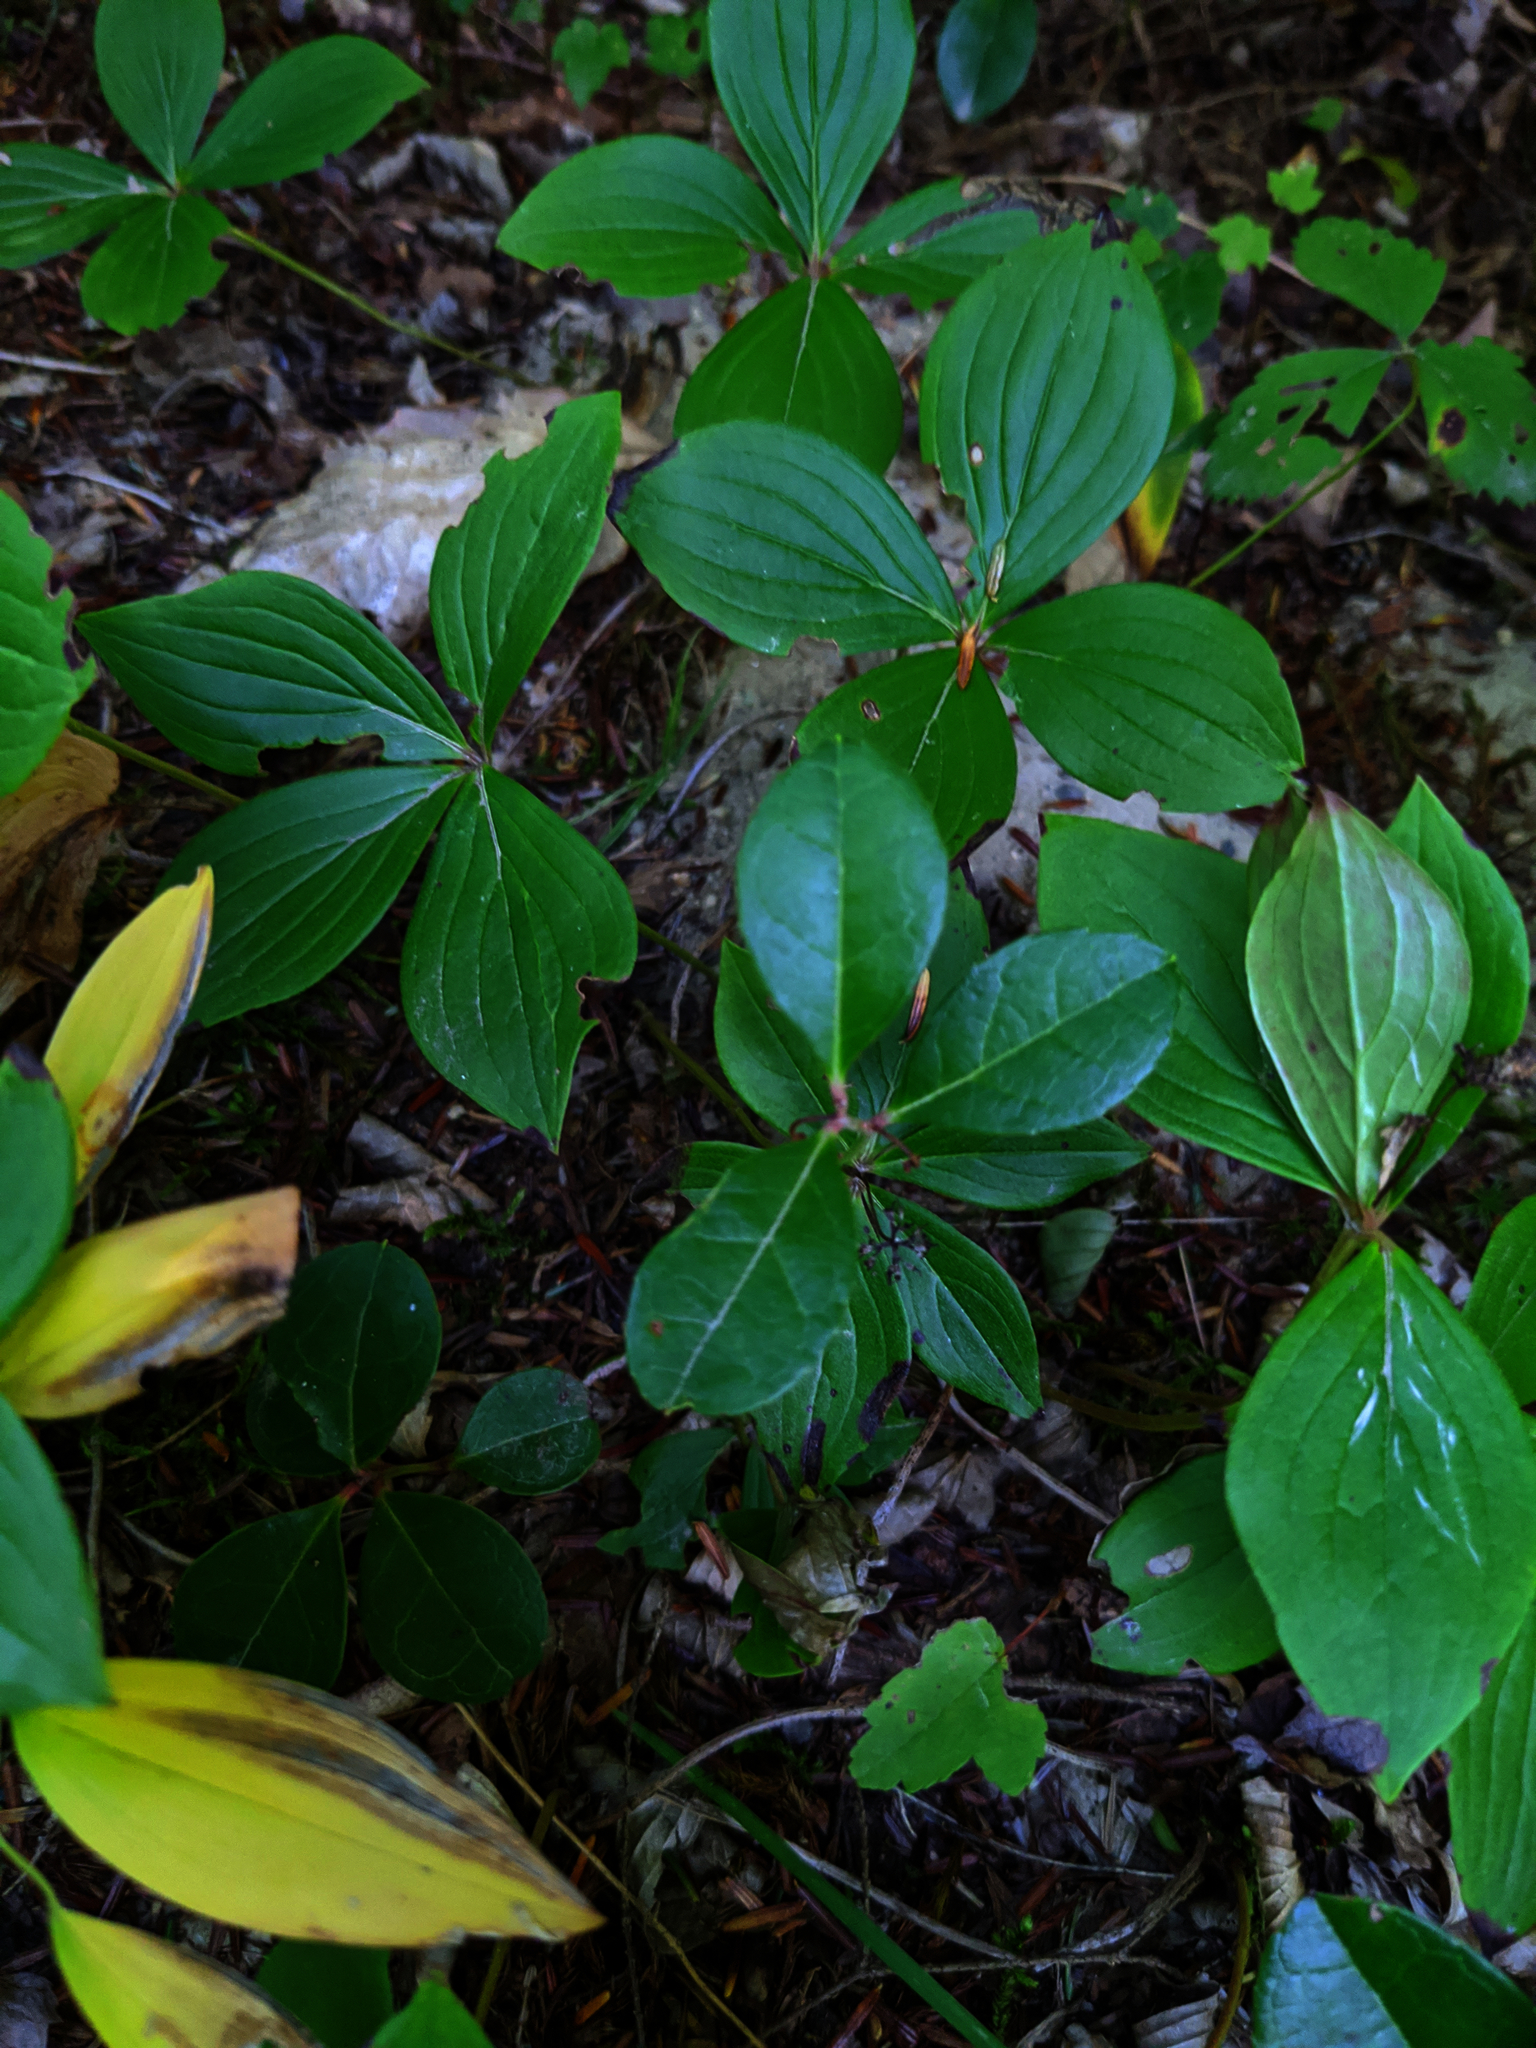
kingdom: Plantae
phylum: Tracheophyta
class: Magnoliopsida
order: Cornales
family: Cornaceae
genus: Cornus
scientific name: Cornus canadensis
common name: Creeping dogwood
